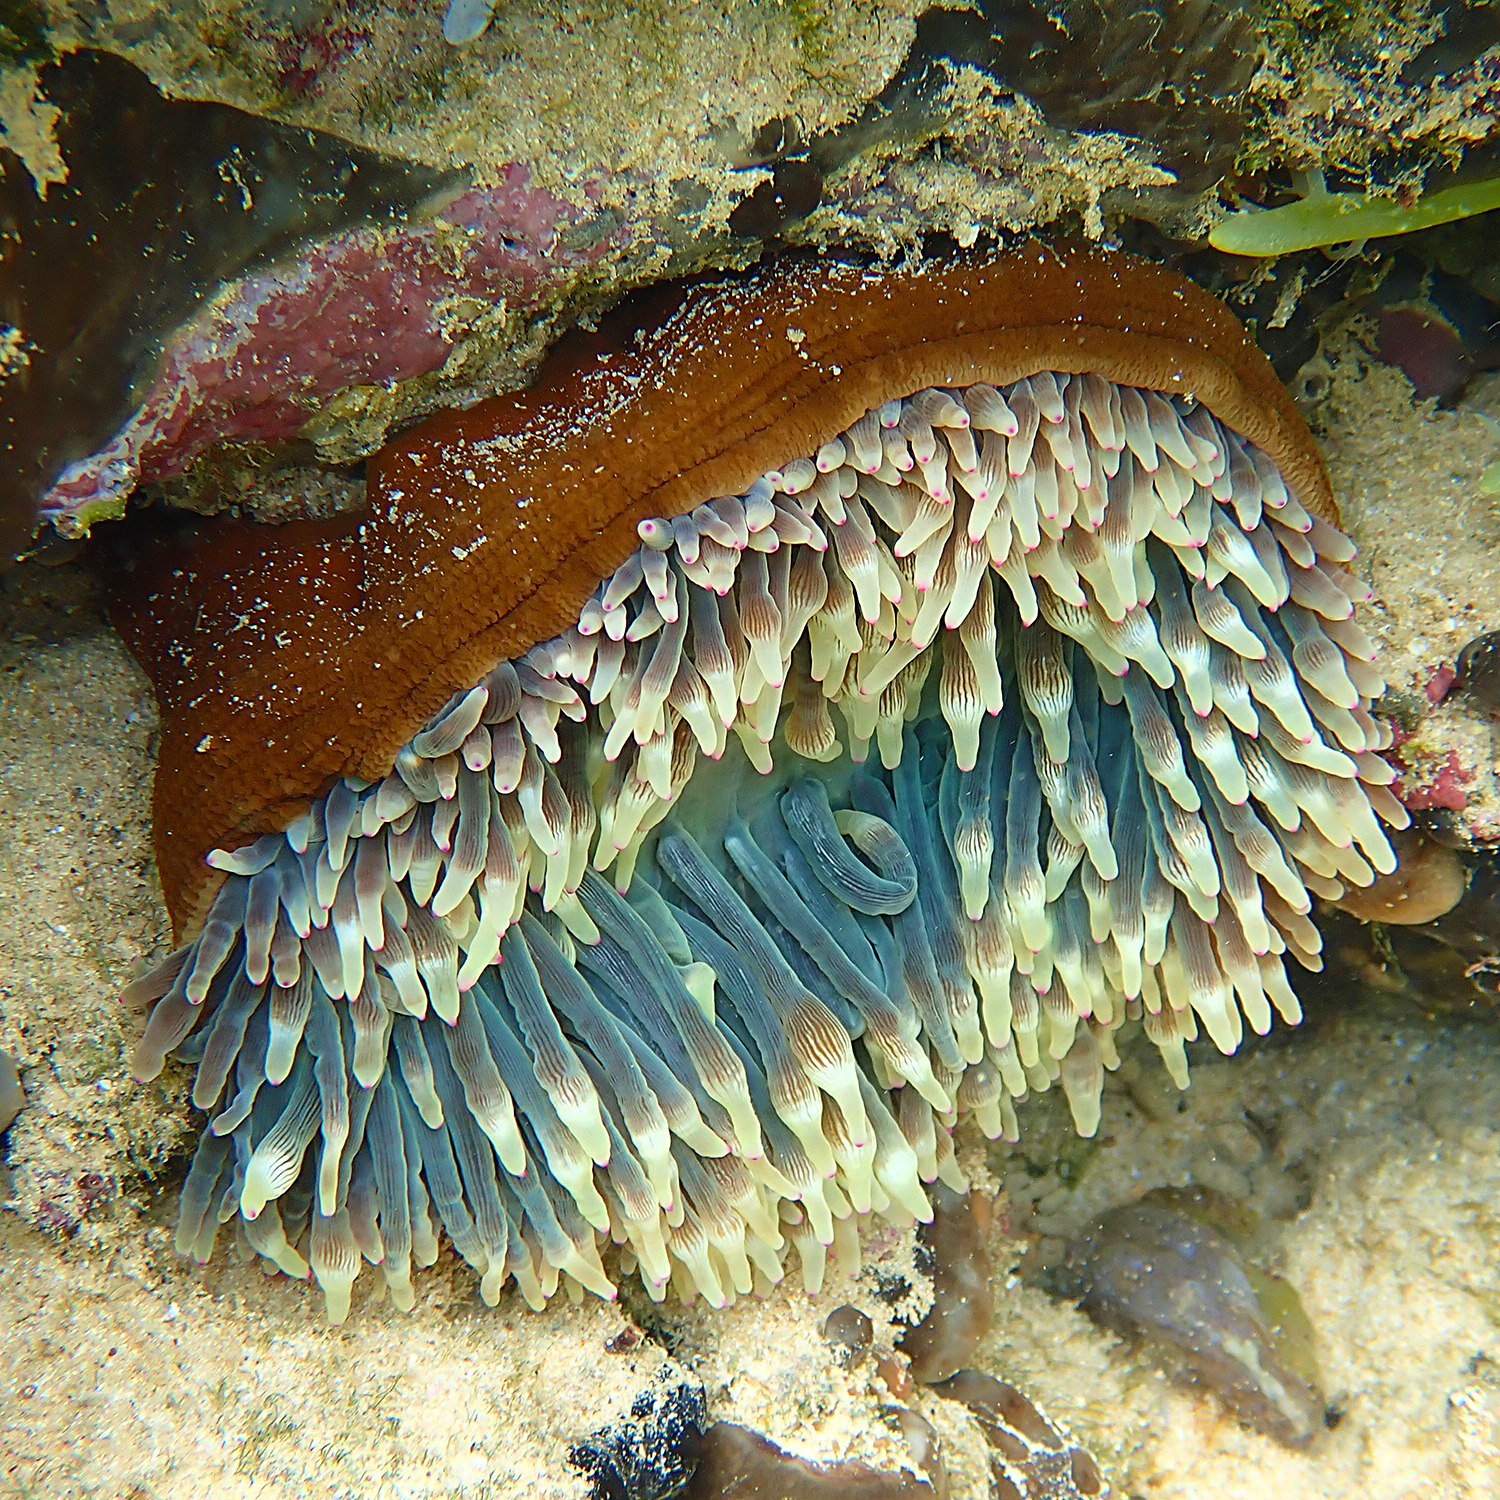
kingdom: Animalia
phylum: Cnidaria
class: Anthozoa
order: Actiniaria
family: Actiniidae
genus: Entacmaea
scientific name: Entacmaea quadricolor
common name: Bulb tentacle sea anemone
